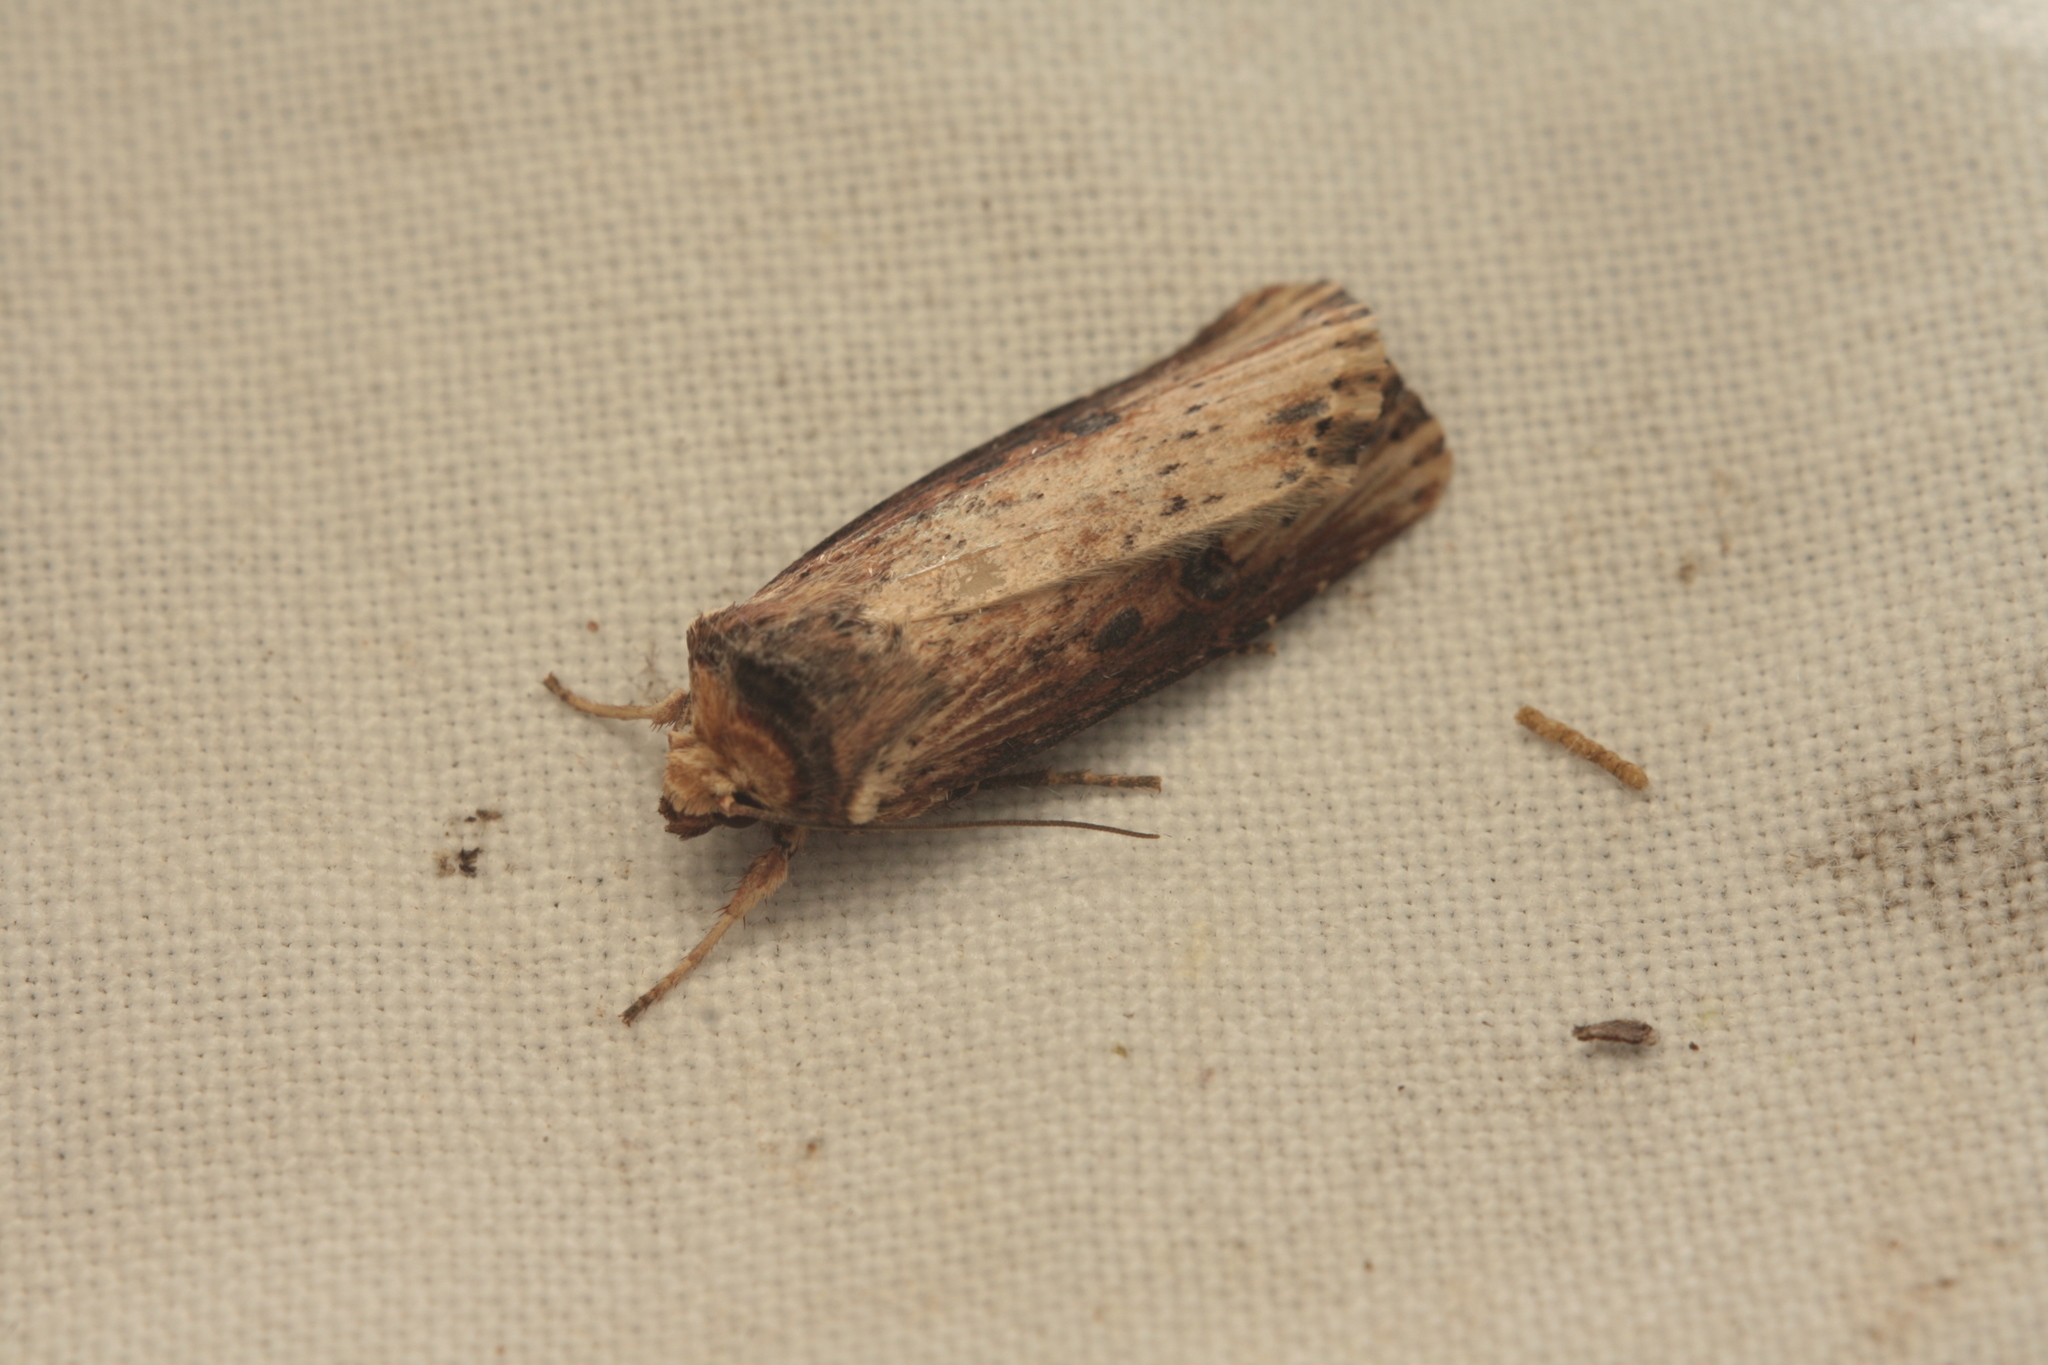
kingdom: Animalia
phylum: Arthropoda
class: Insecta
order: Lepidoptera
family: Noctuidae
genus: Axylia
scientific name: Axylia putris
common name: Flame
